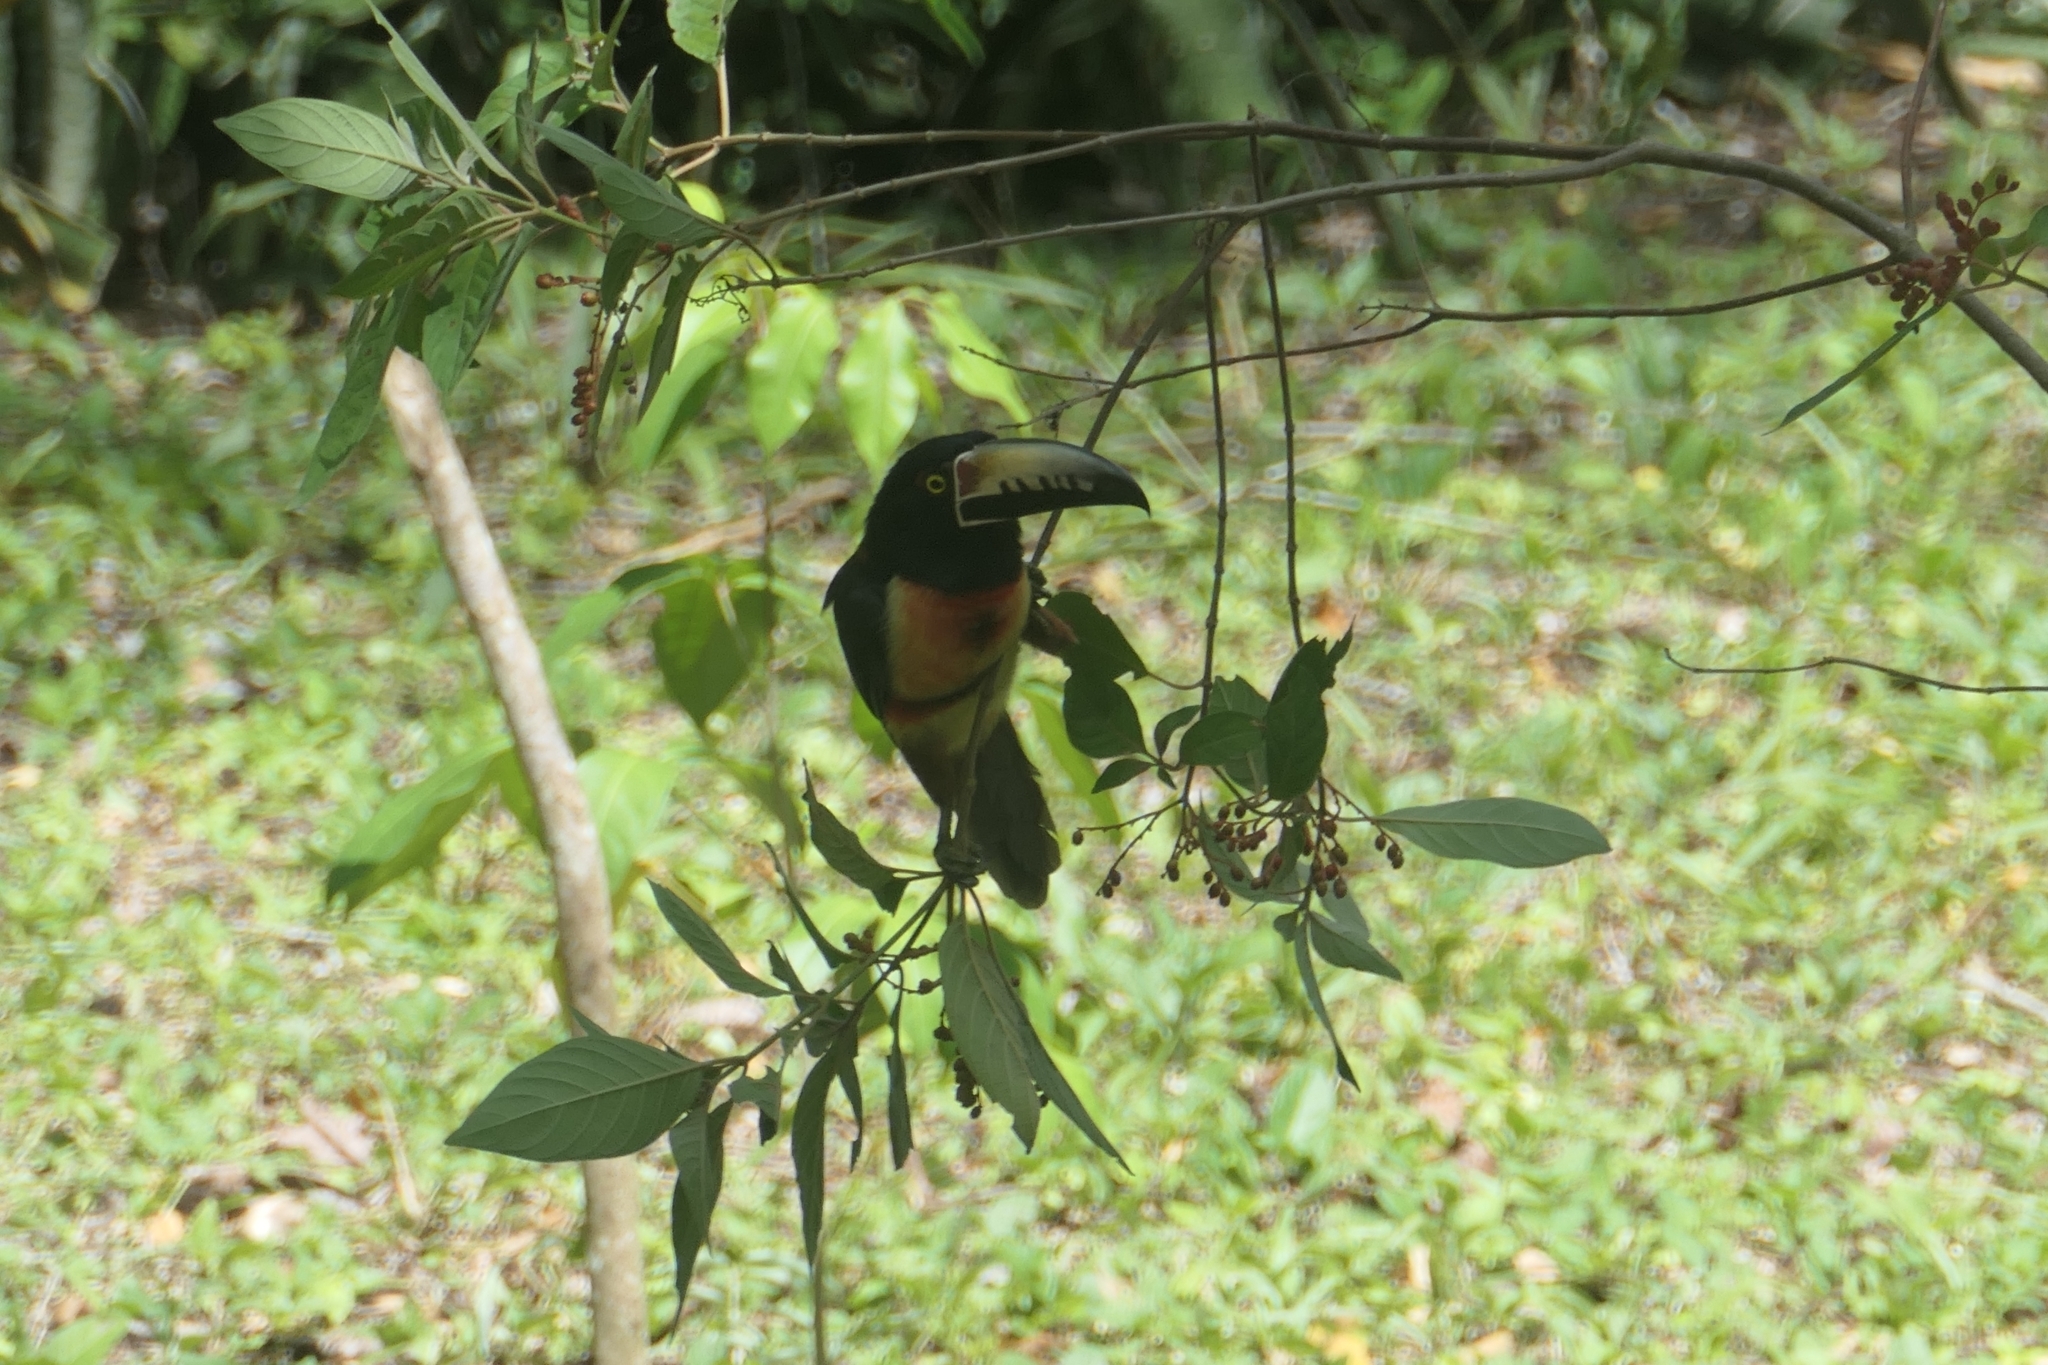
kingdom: Animalia
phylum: Chordata
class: Aves
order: Piciformes
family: Ramphastidae
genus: Pteroglossus
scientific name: Pteroglossus torquatus
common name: Collared aracari
